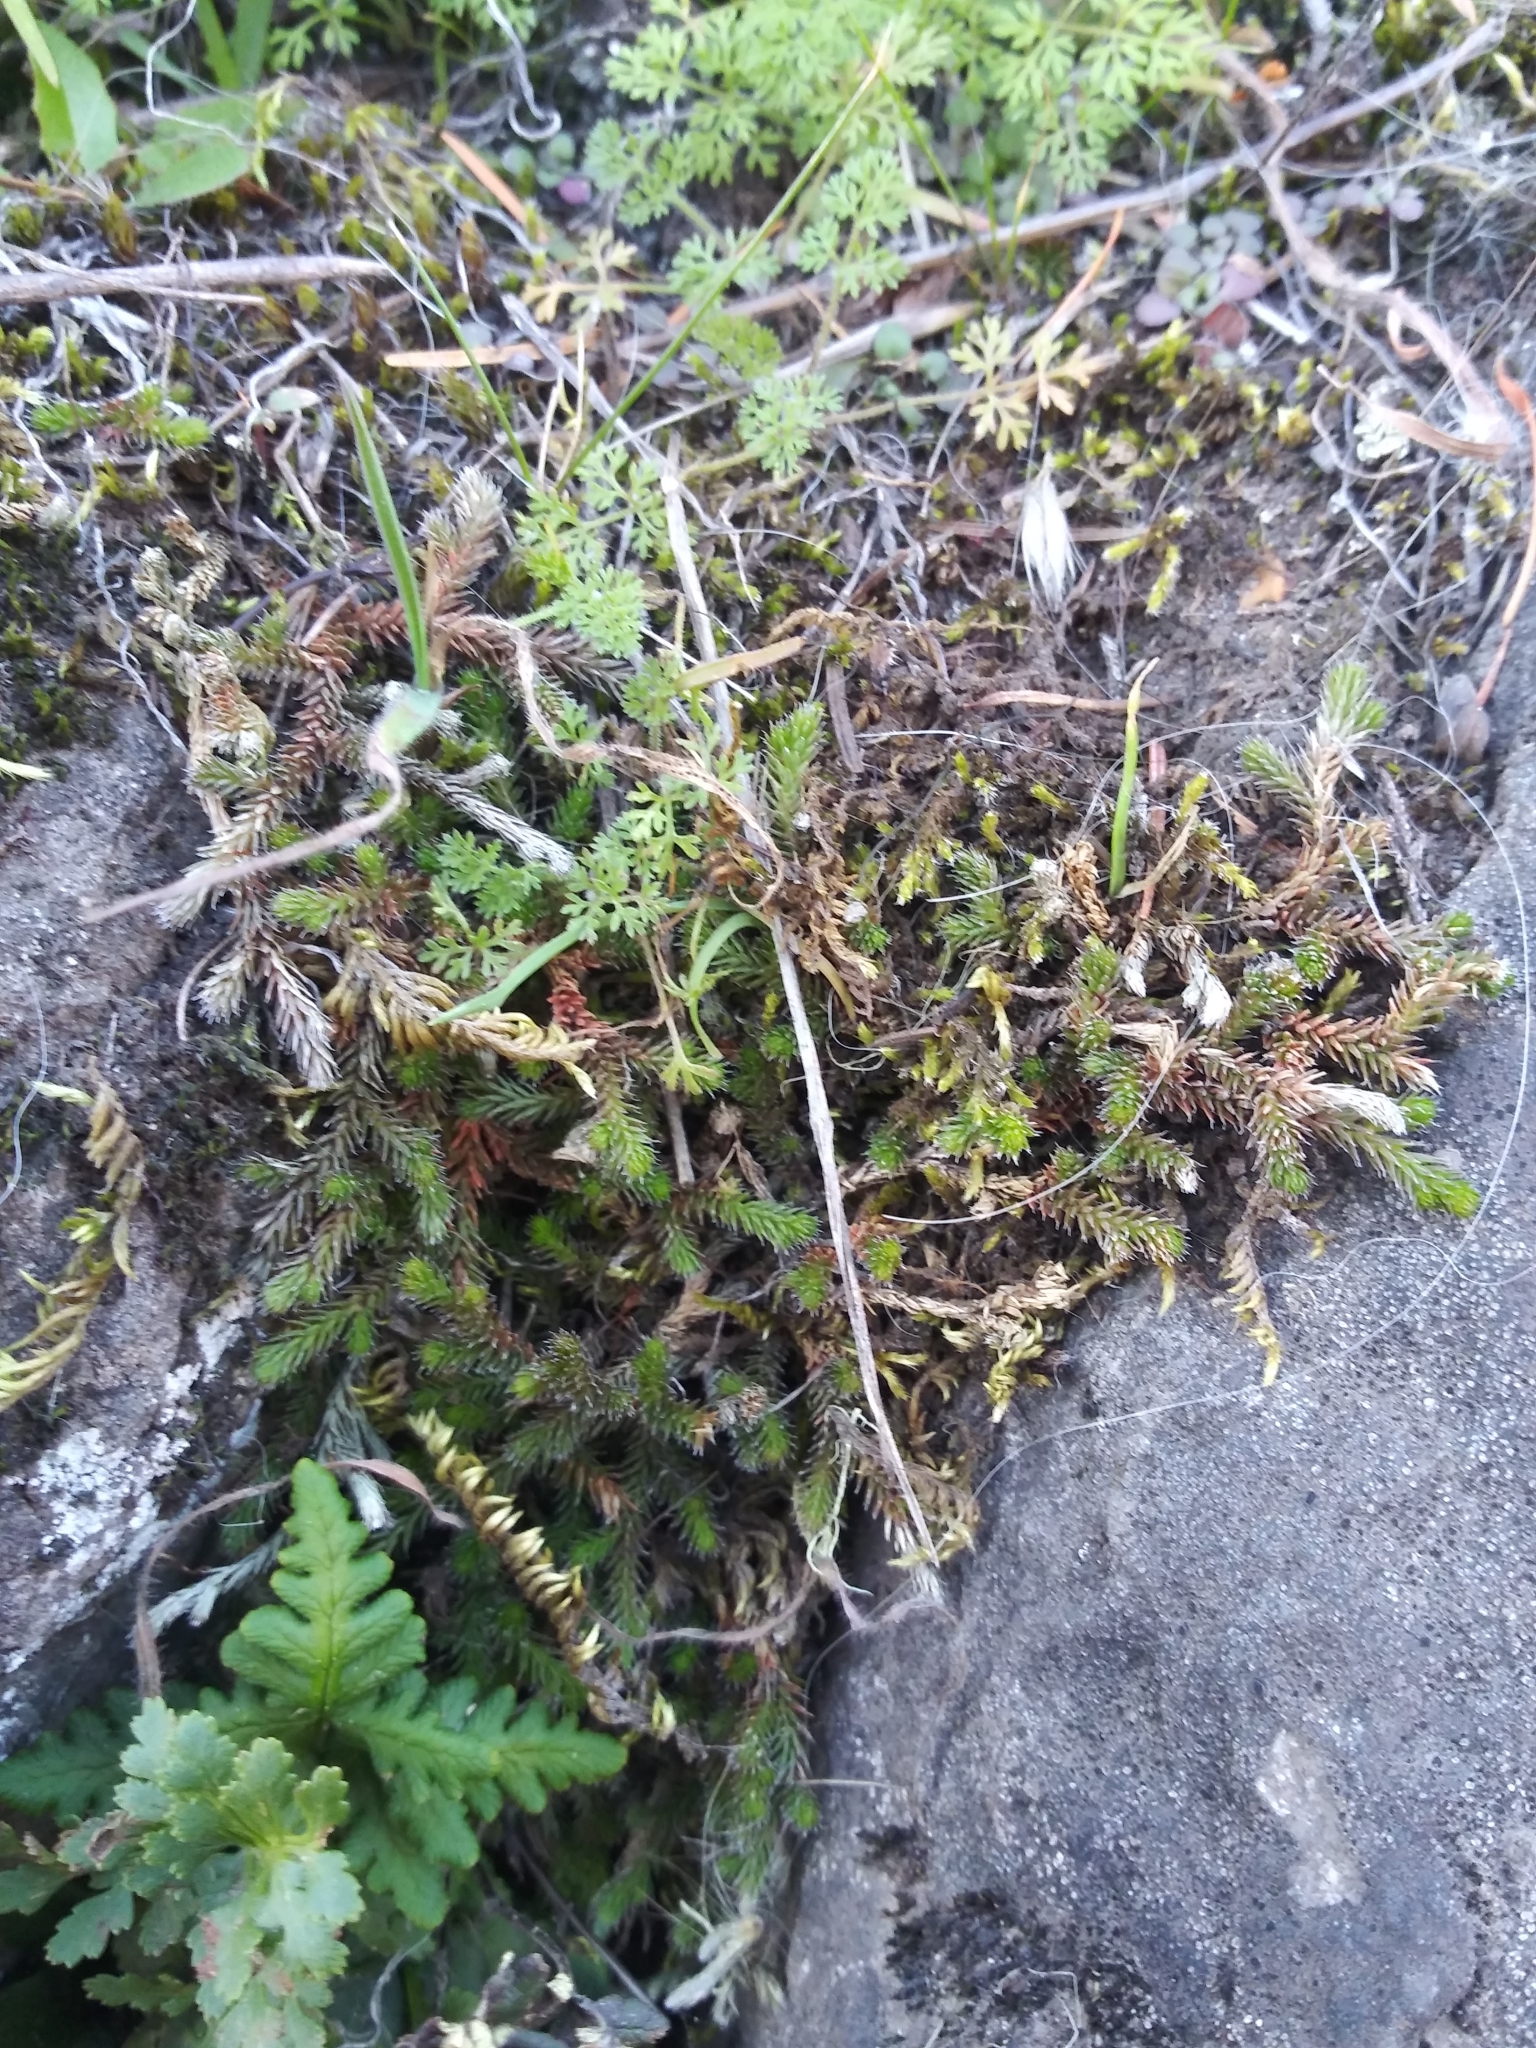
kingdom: Plantae
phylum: Tracheophyta
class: Lycopodiopsida
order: Selaginellales
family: Selaginellaceae
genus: Selaginella
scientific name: Selaginella wallacei
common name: Wallace's selaginella
